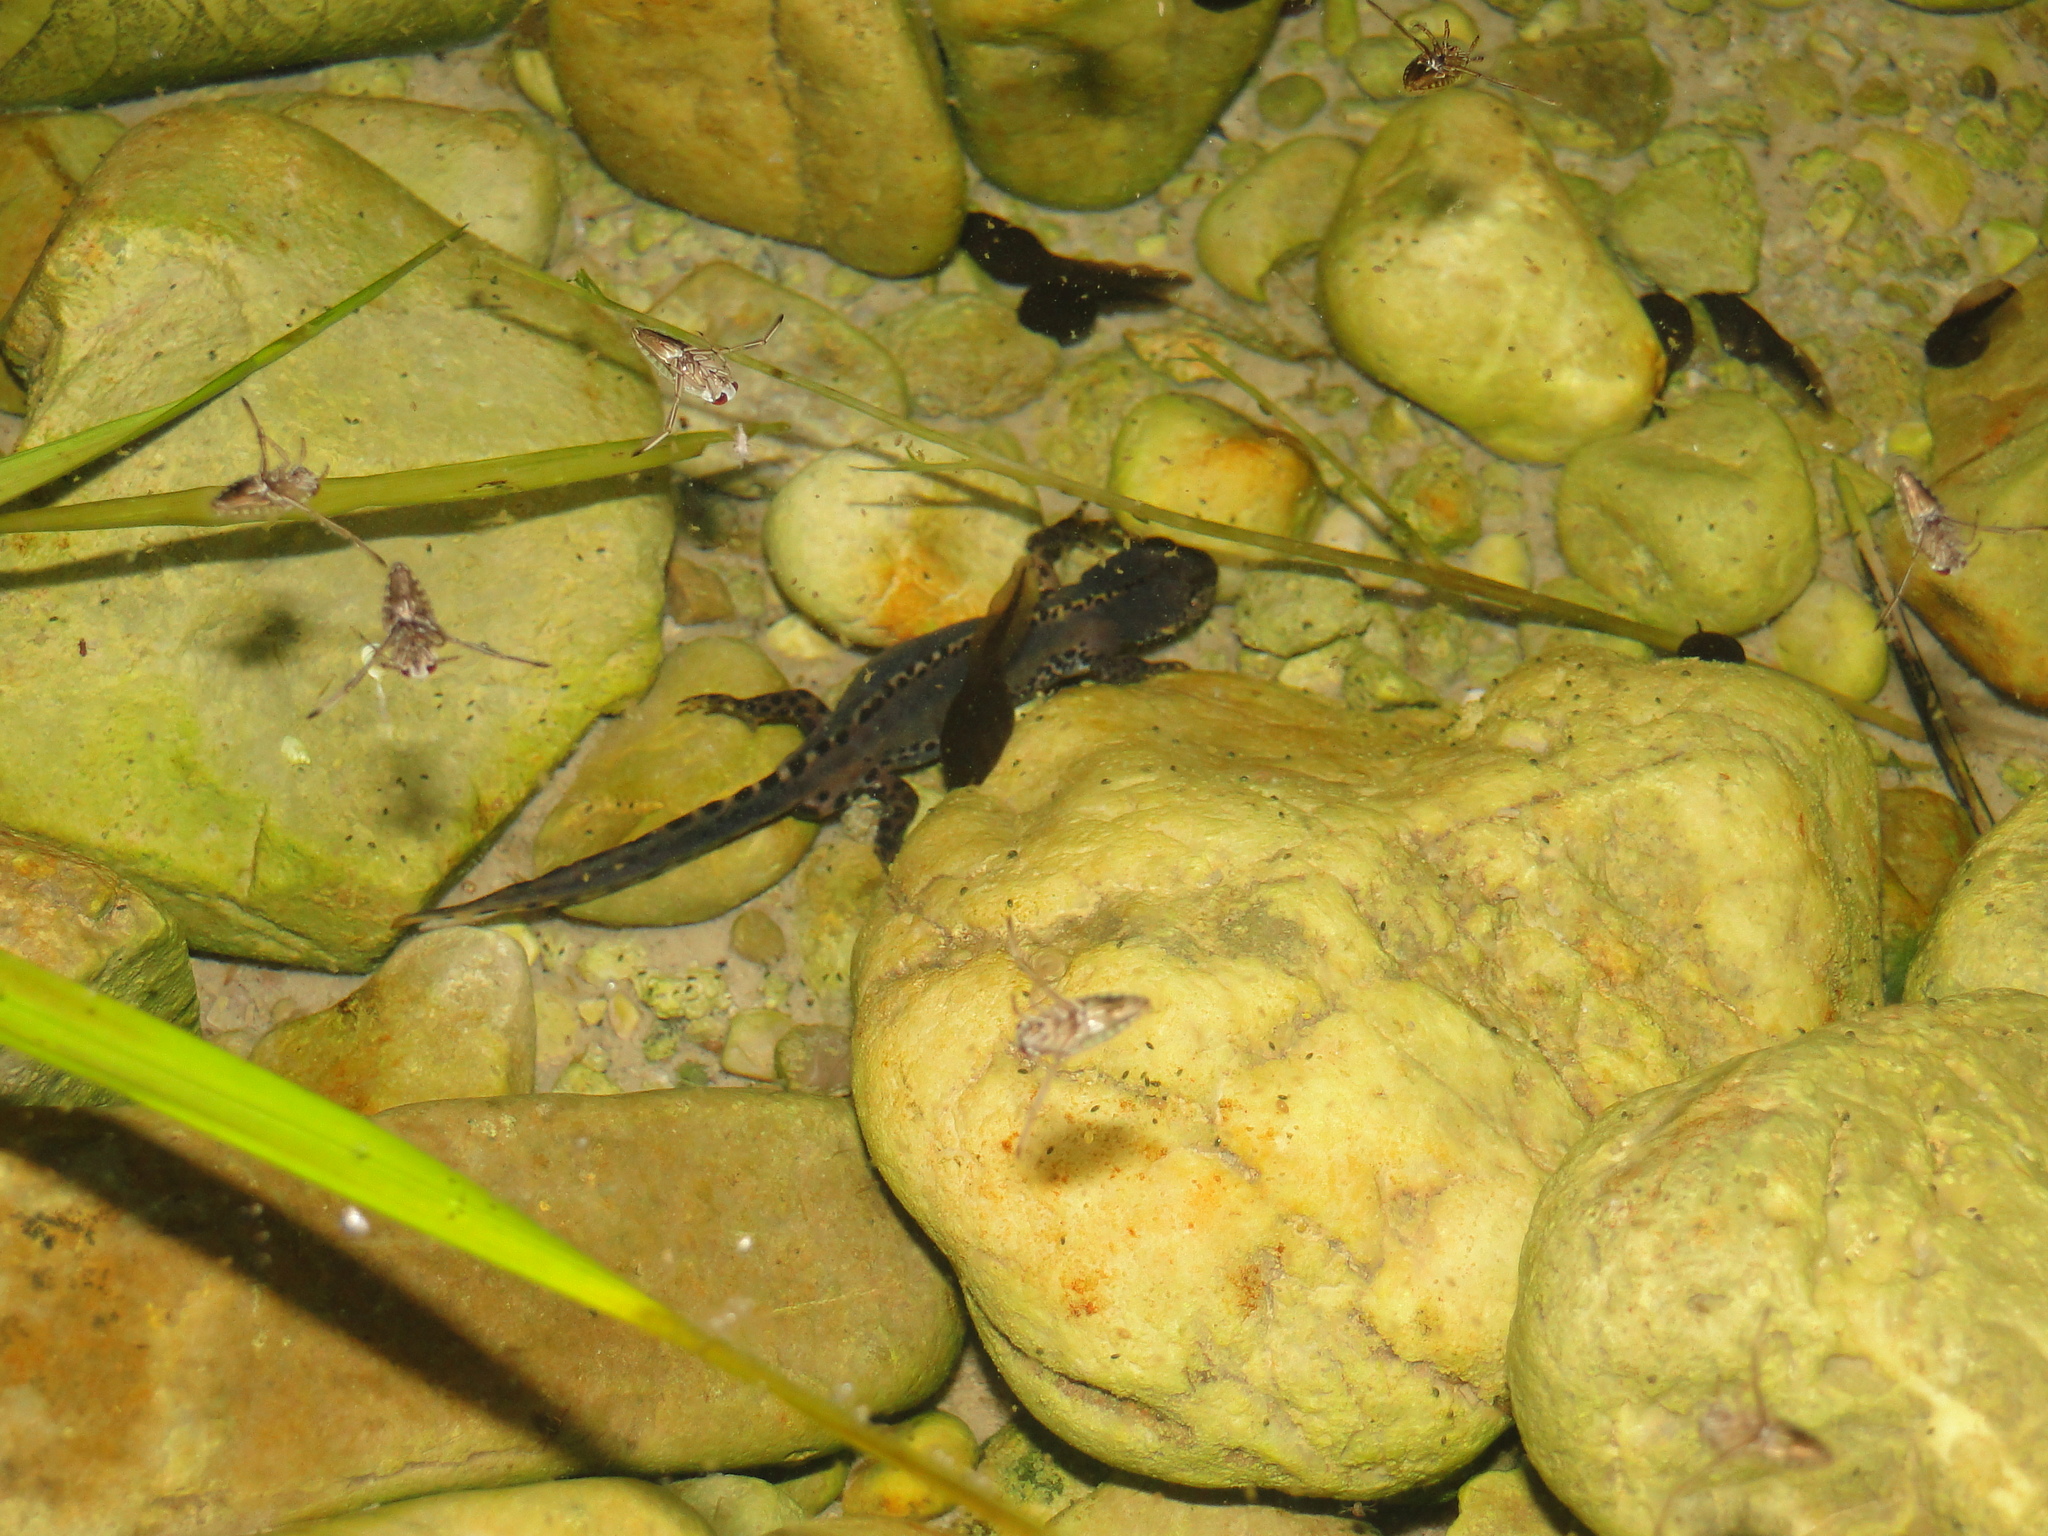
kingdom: Animalia
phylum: Chordata
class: Amphibia
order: Caudata
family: Salamandridae
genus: Ichthyosaura
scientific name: Ichthyosaura alpestris
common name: Alpine newt
